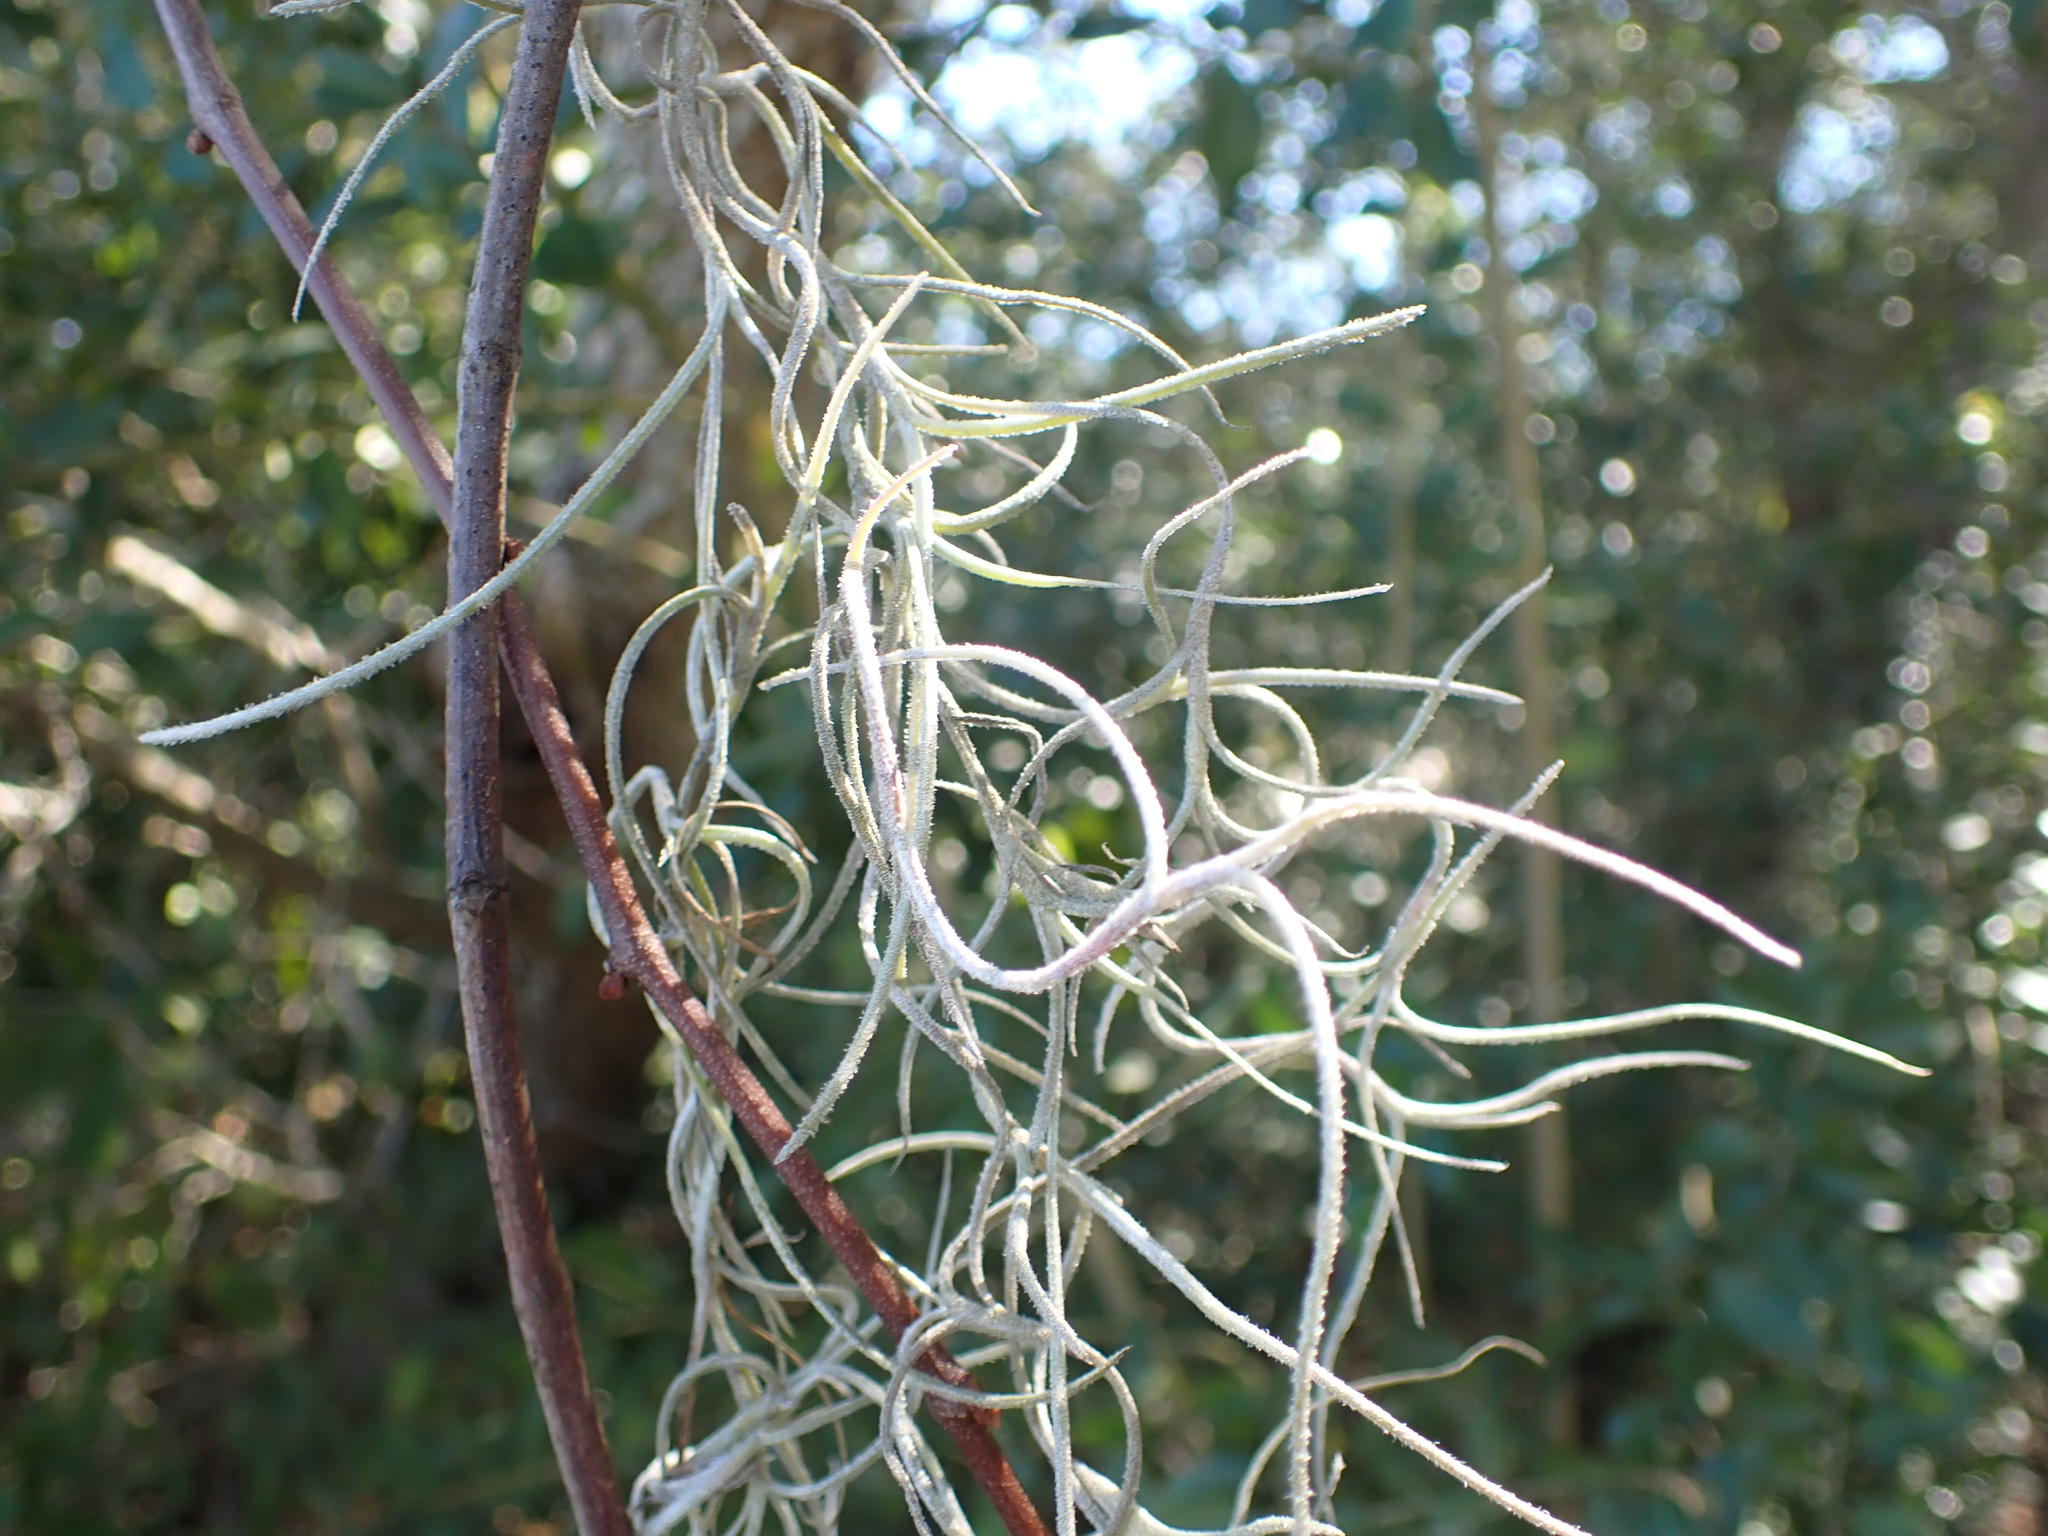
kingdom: Plantae
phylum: Tracheophyta
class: Liliopsida
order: Poales
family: Bromeliaceae
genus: Tillandsia
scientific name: Tillandsia usneoides
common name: Spanish moss
